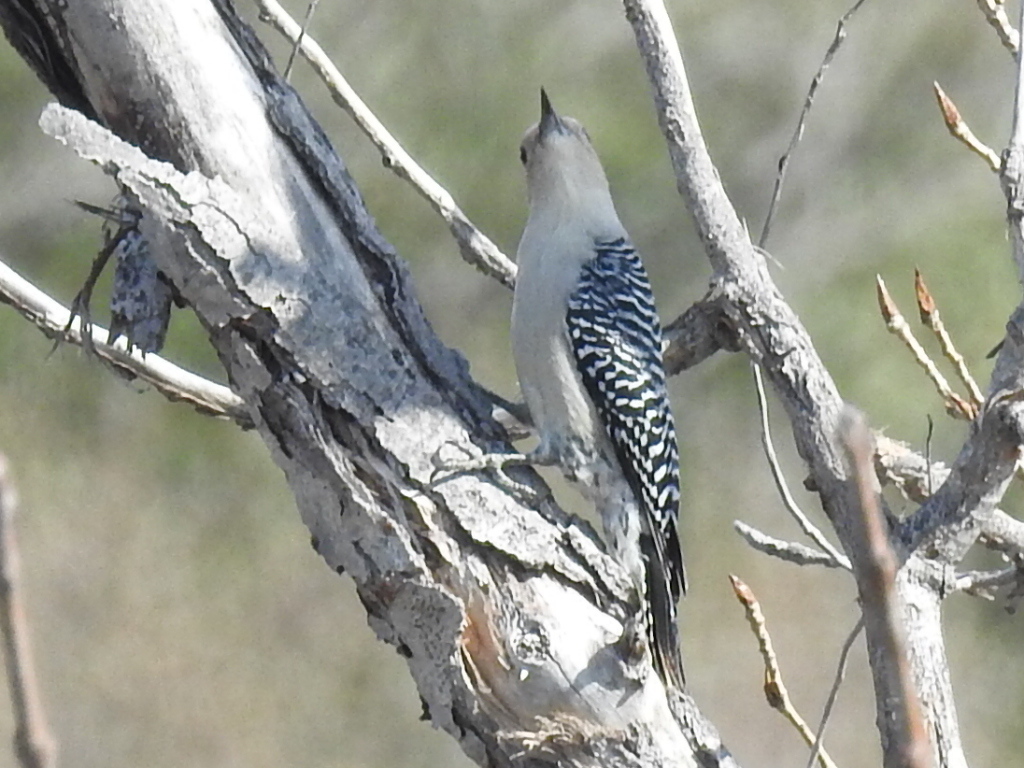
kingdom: Animalia
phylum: Chordata
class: Aves
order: Piciformes
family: Picidae
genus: Melanerpes
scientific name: Melanerpes carolinus
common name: Red-bellied woodpecker
